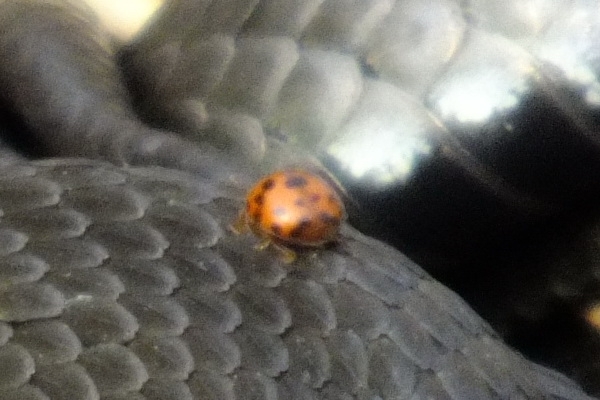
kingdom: Animalia
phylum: Arthropoda
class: Insecta
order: Coleoptera
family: Coccinellidae
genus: Subcoccinella
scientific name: Subcoccinella vigintiquatuorpunctata
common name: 24-spot ladybird
